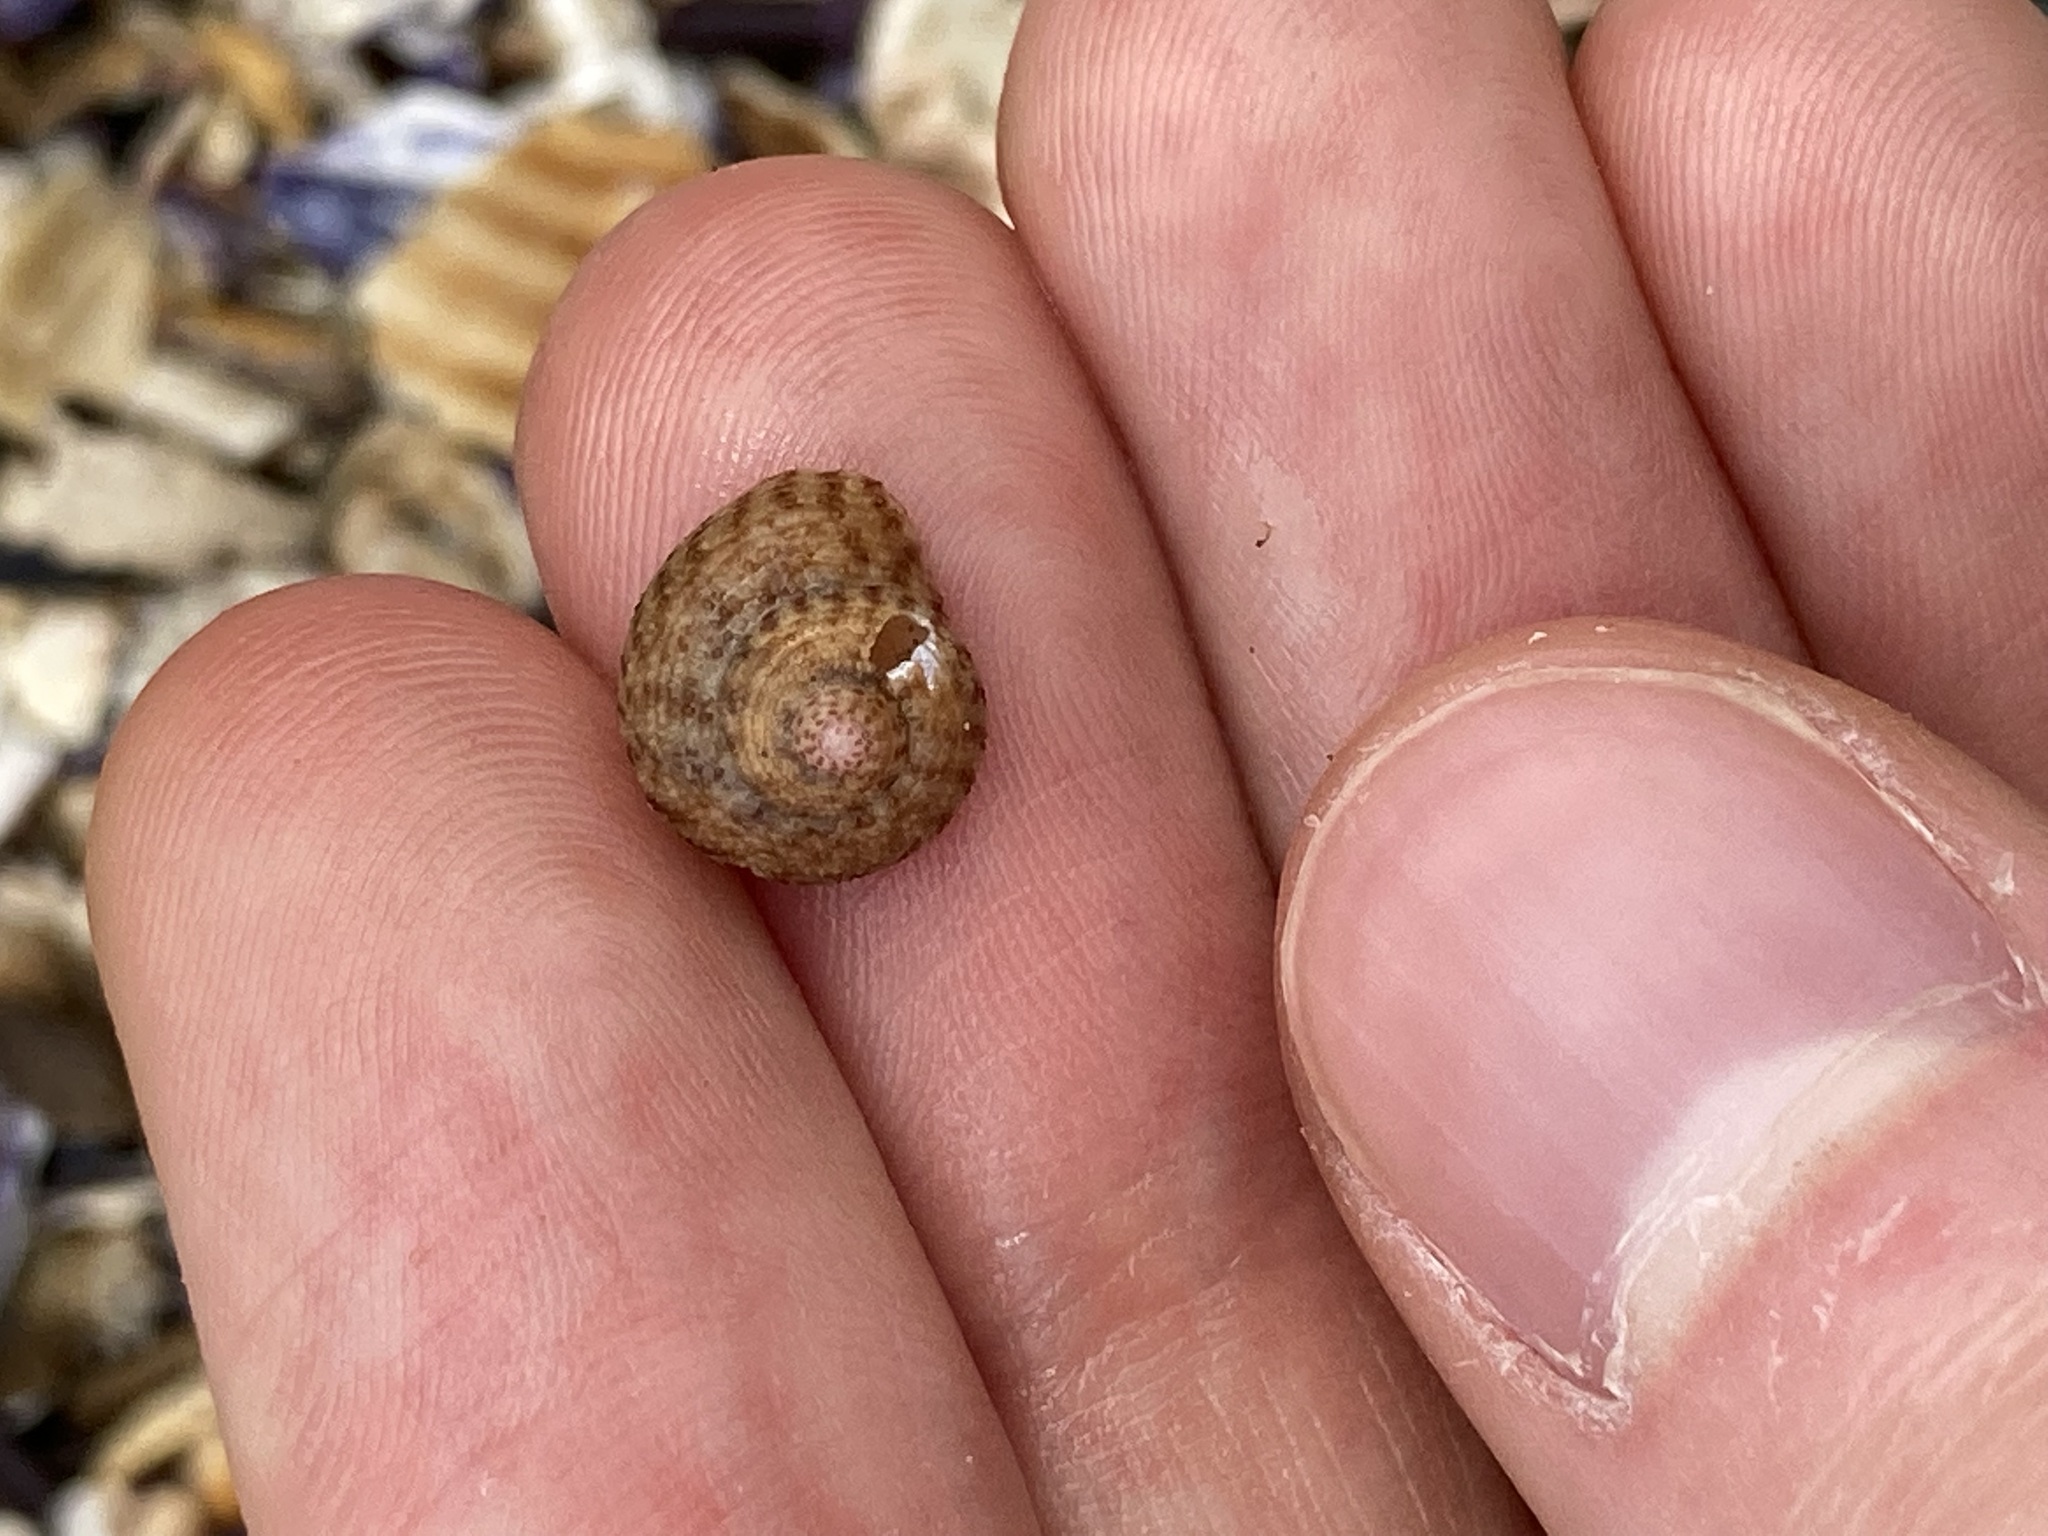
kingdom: Animalia
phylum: Mollusca
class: Gastropoda
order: Trochida
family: Trochidae
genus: Clanculus
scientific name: Clanculus floridus
